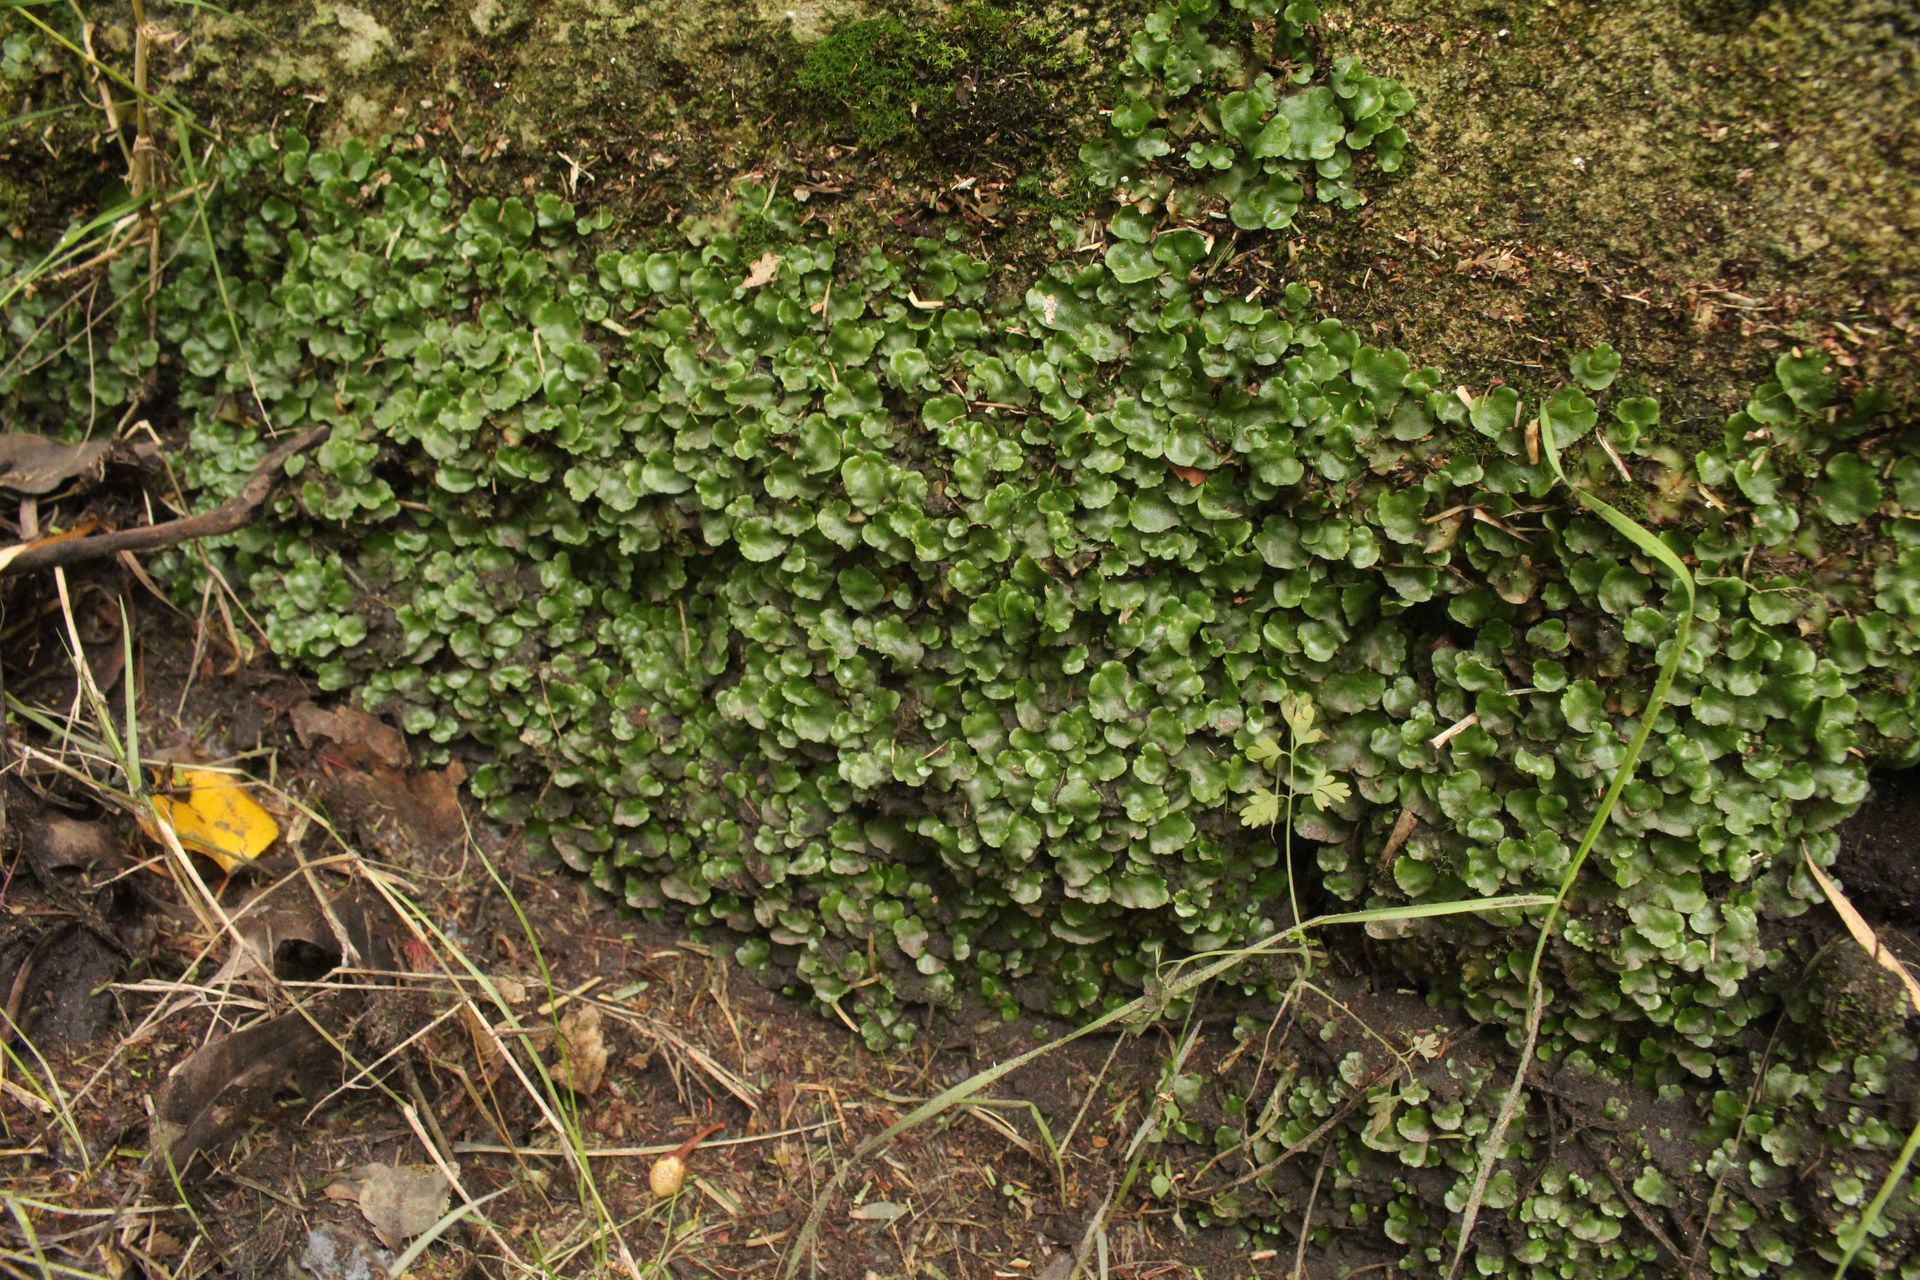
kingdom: Plantae
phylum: Marchantiophyta
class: Marchantiopsida
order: Lunulariales
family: Lunulariaceae
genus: Lunularia
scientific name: Lunularia cruciata
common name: Crescent-cup liverwort
